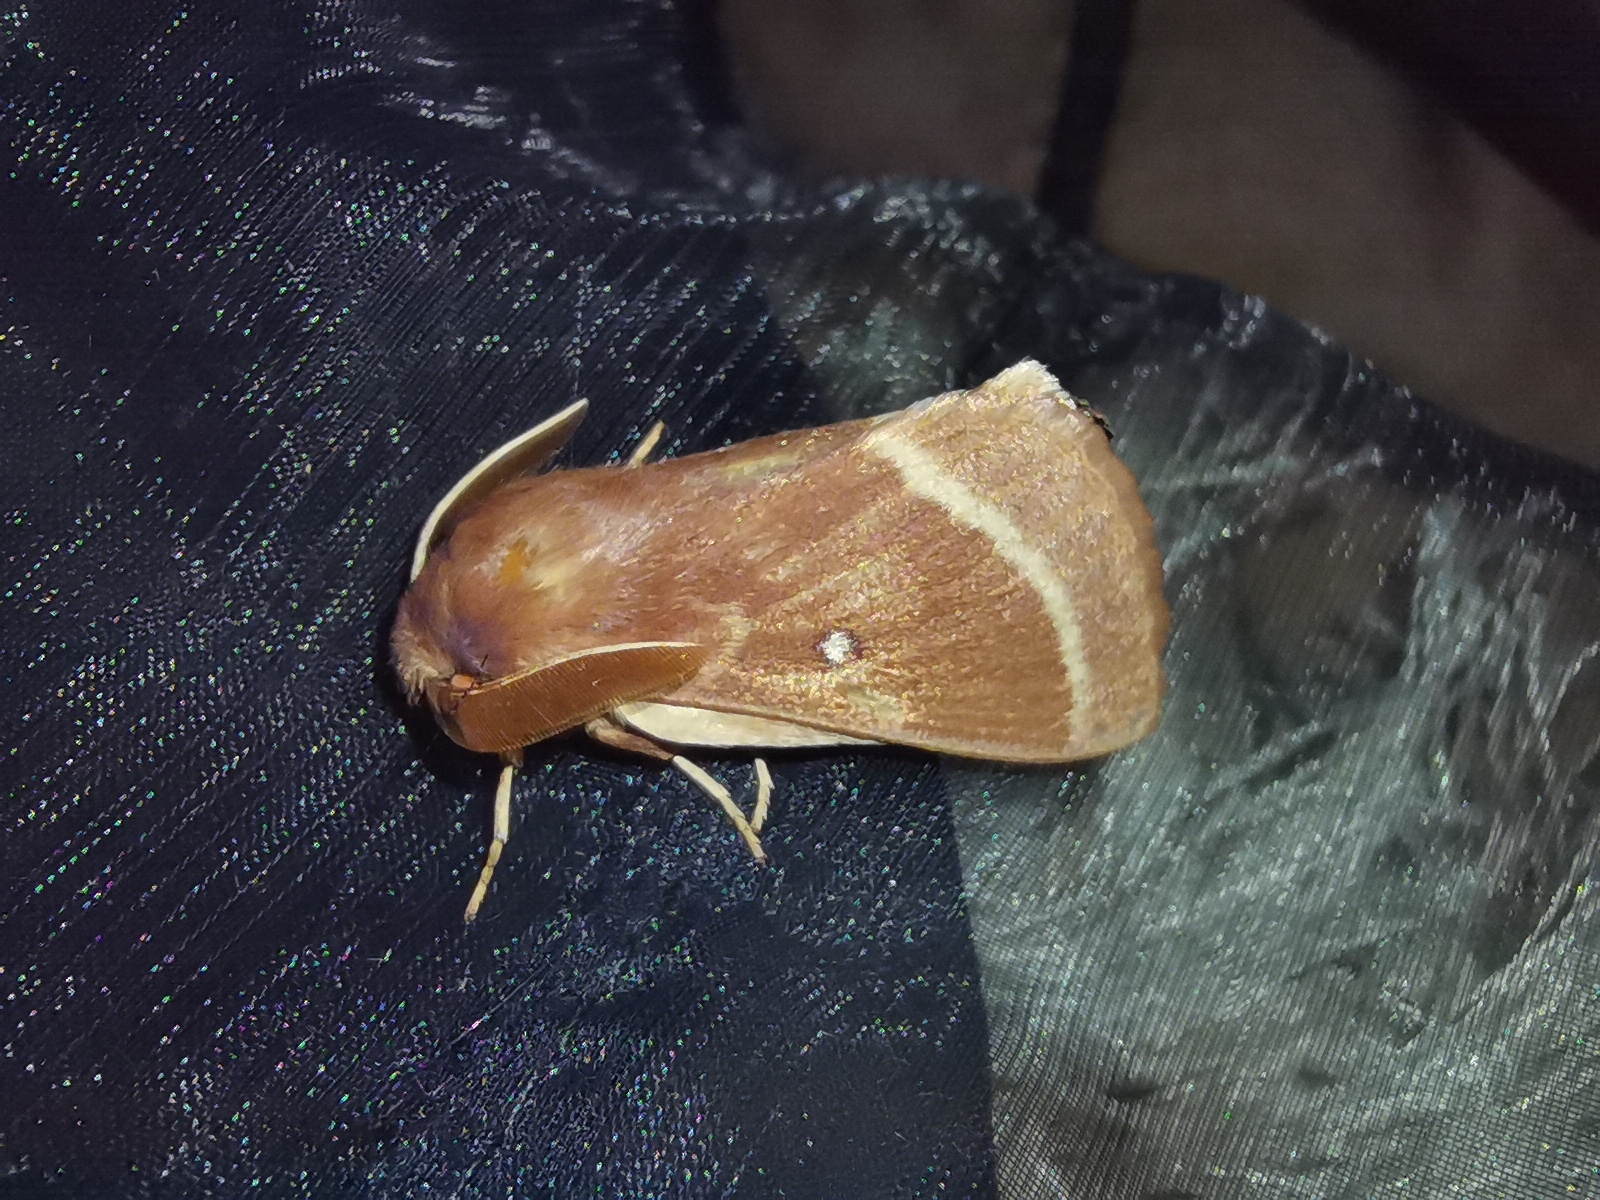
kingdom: Animalia
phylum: Arthropoda
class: Insecta
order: Lepidoptera
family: Lasiocampidae
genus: Lasiocampa
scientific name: Lasiocampa trifolii
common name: Grass eggar
